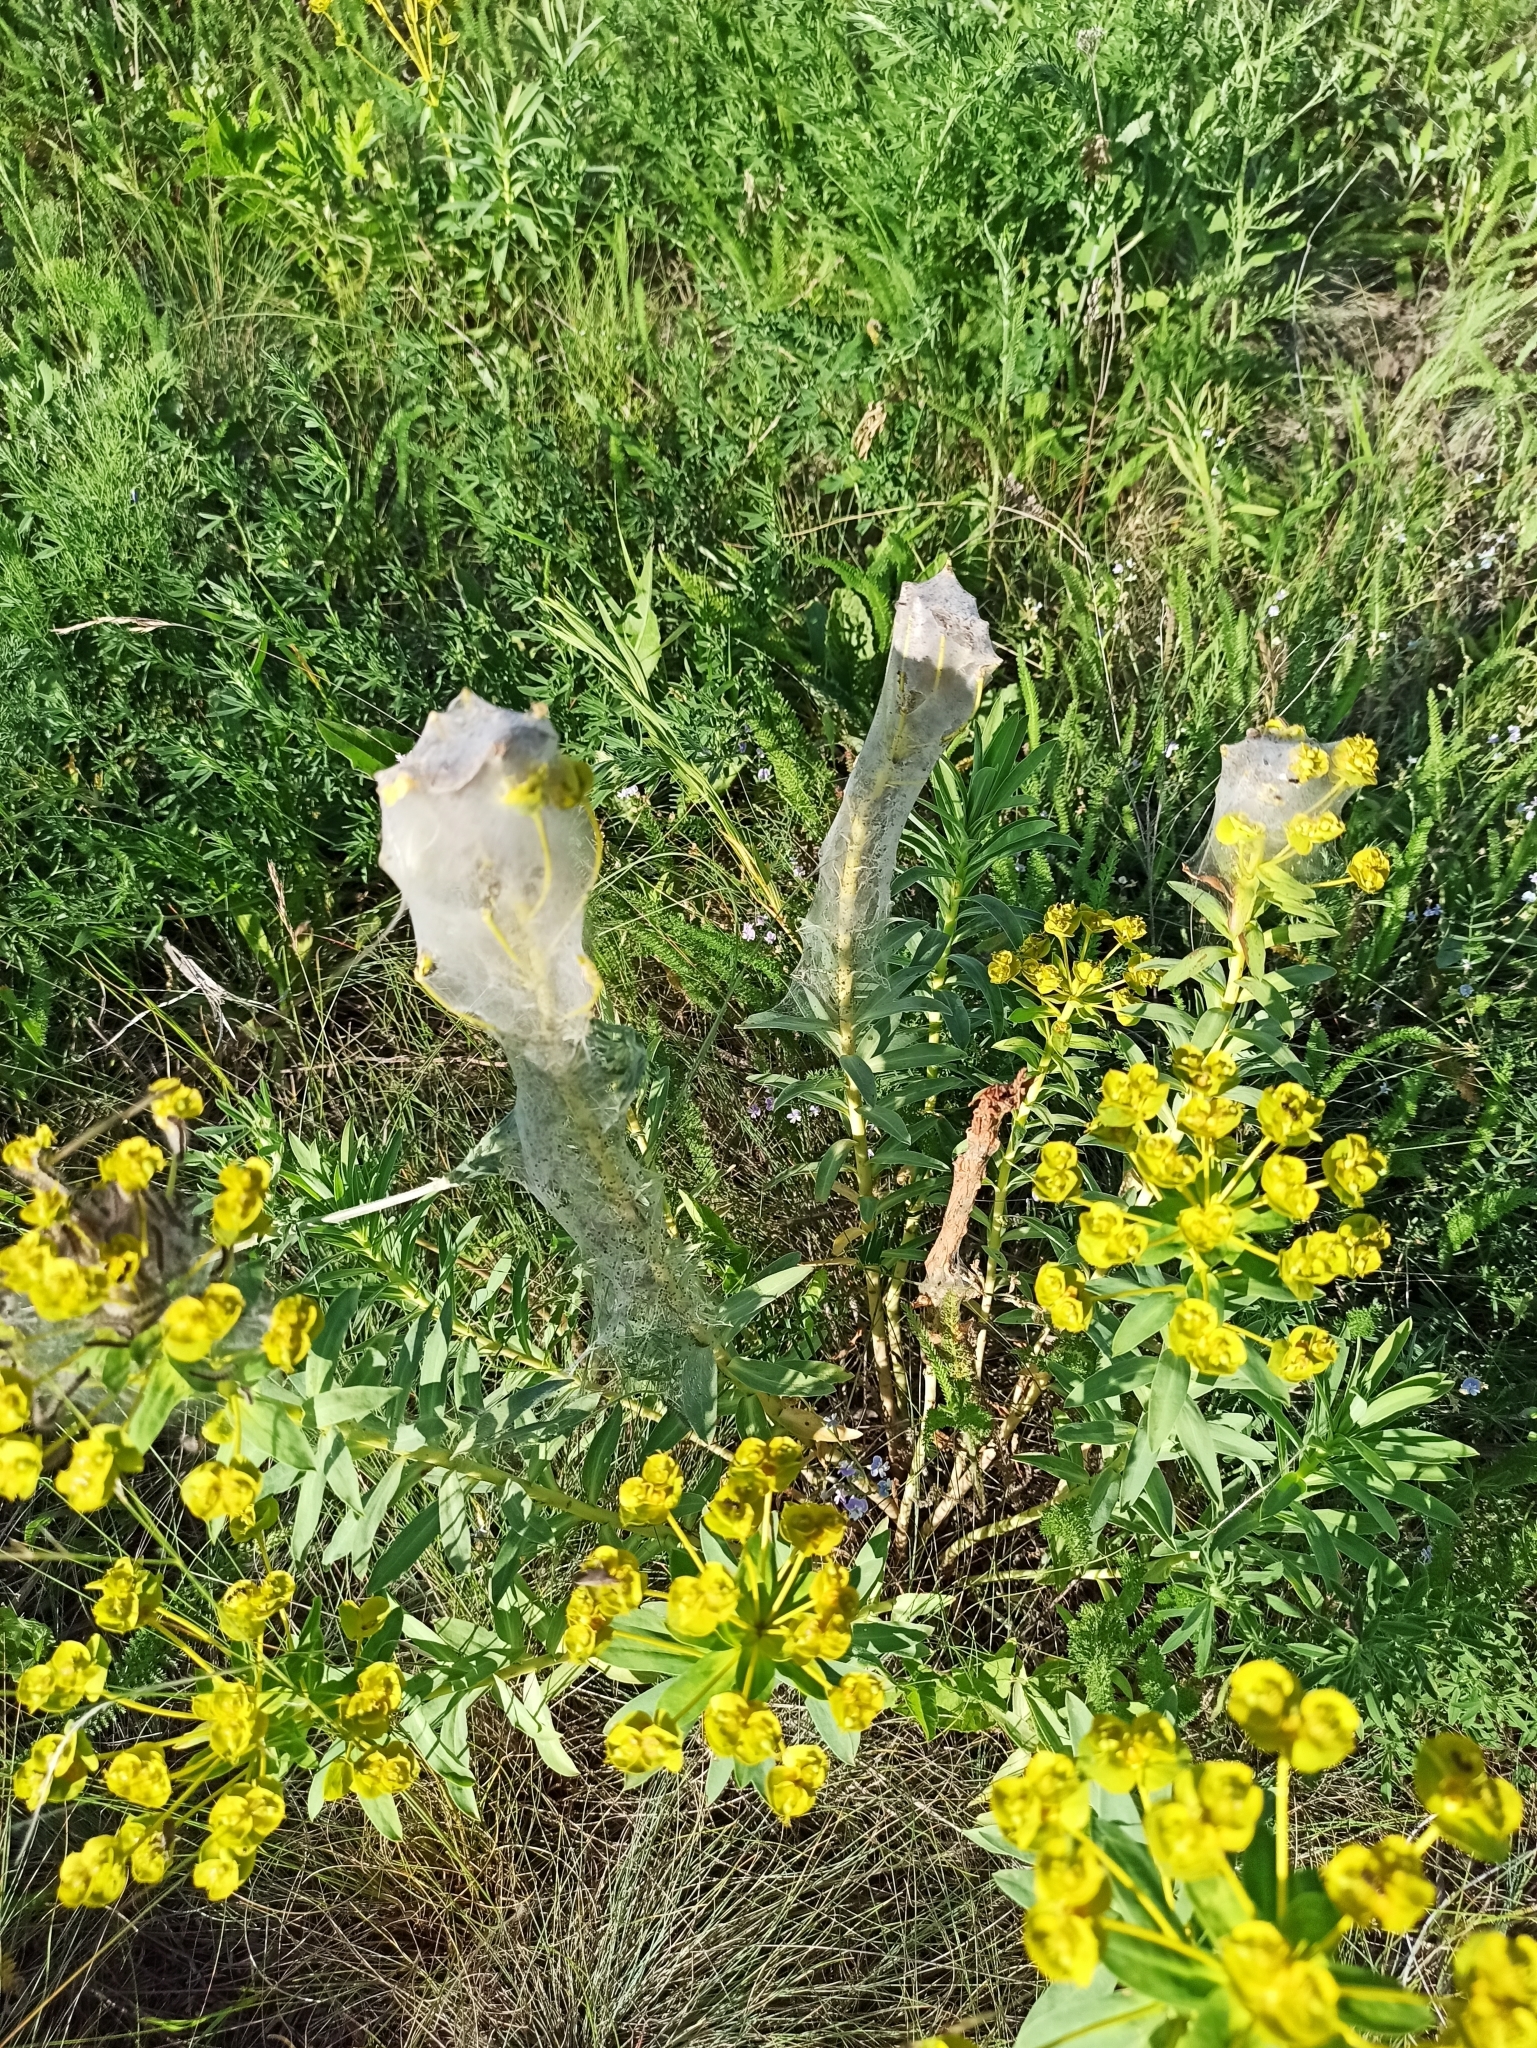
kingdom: Plantae
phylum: Tracheophyta
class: Magnoliopsida
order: Malpighiales
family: Euphorbiaceae
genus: Euphorbia
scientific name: Euphorbia stepposa
